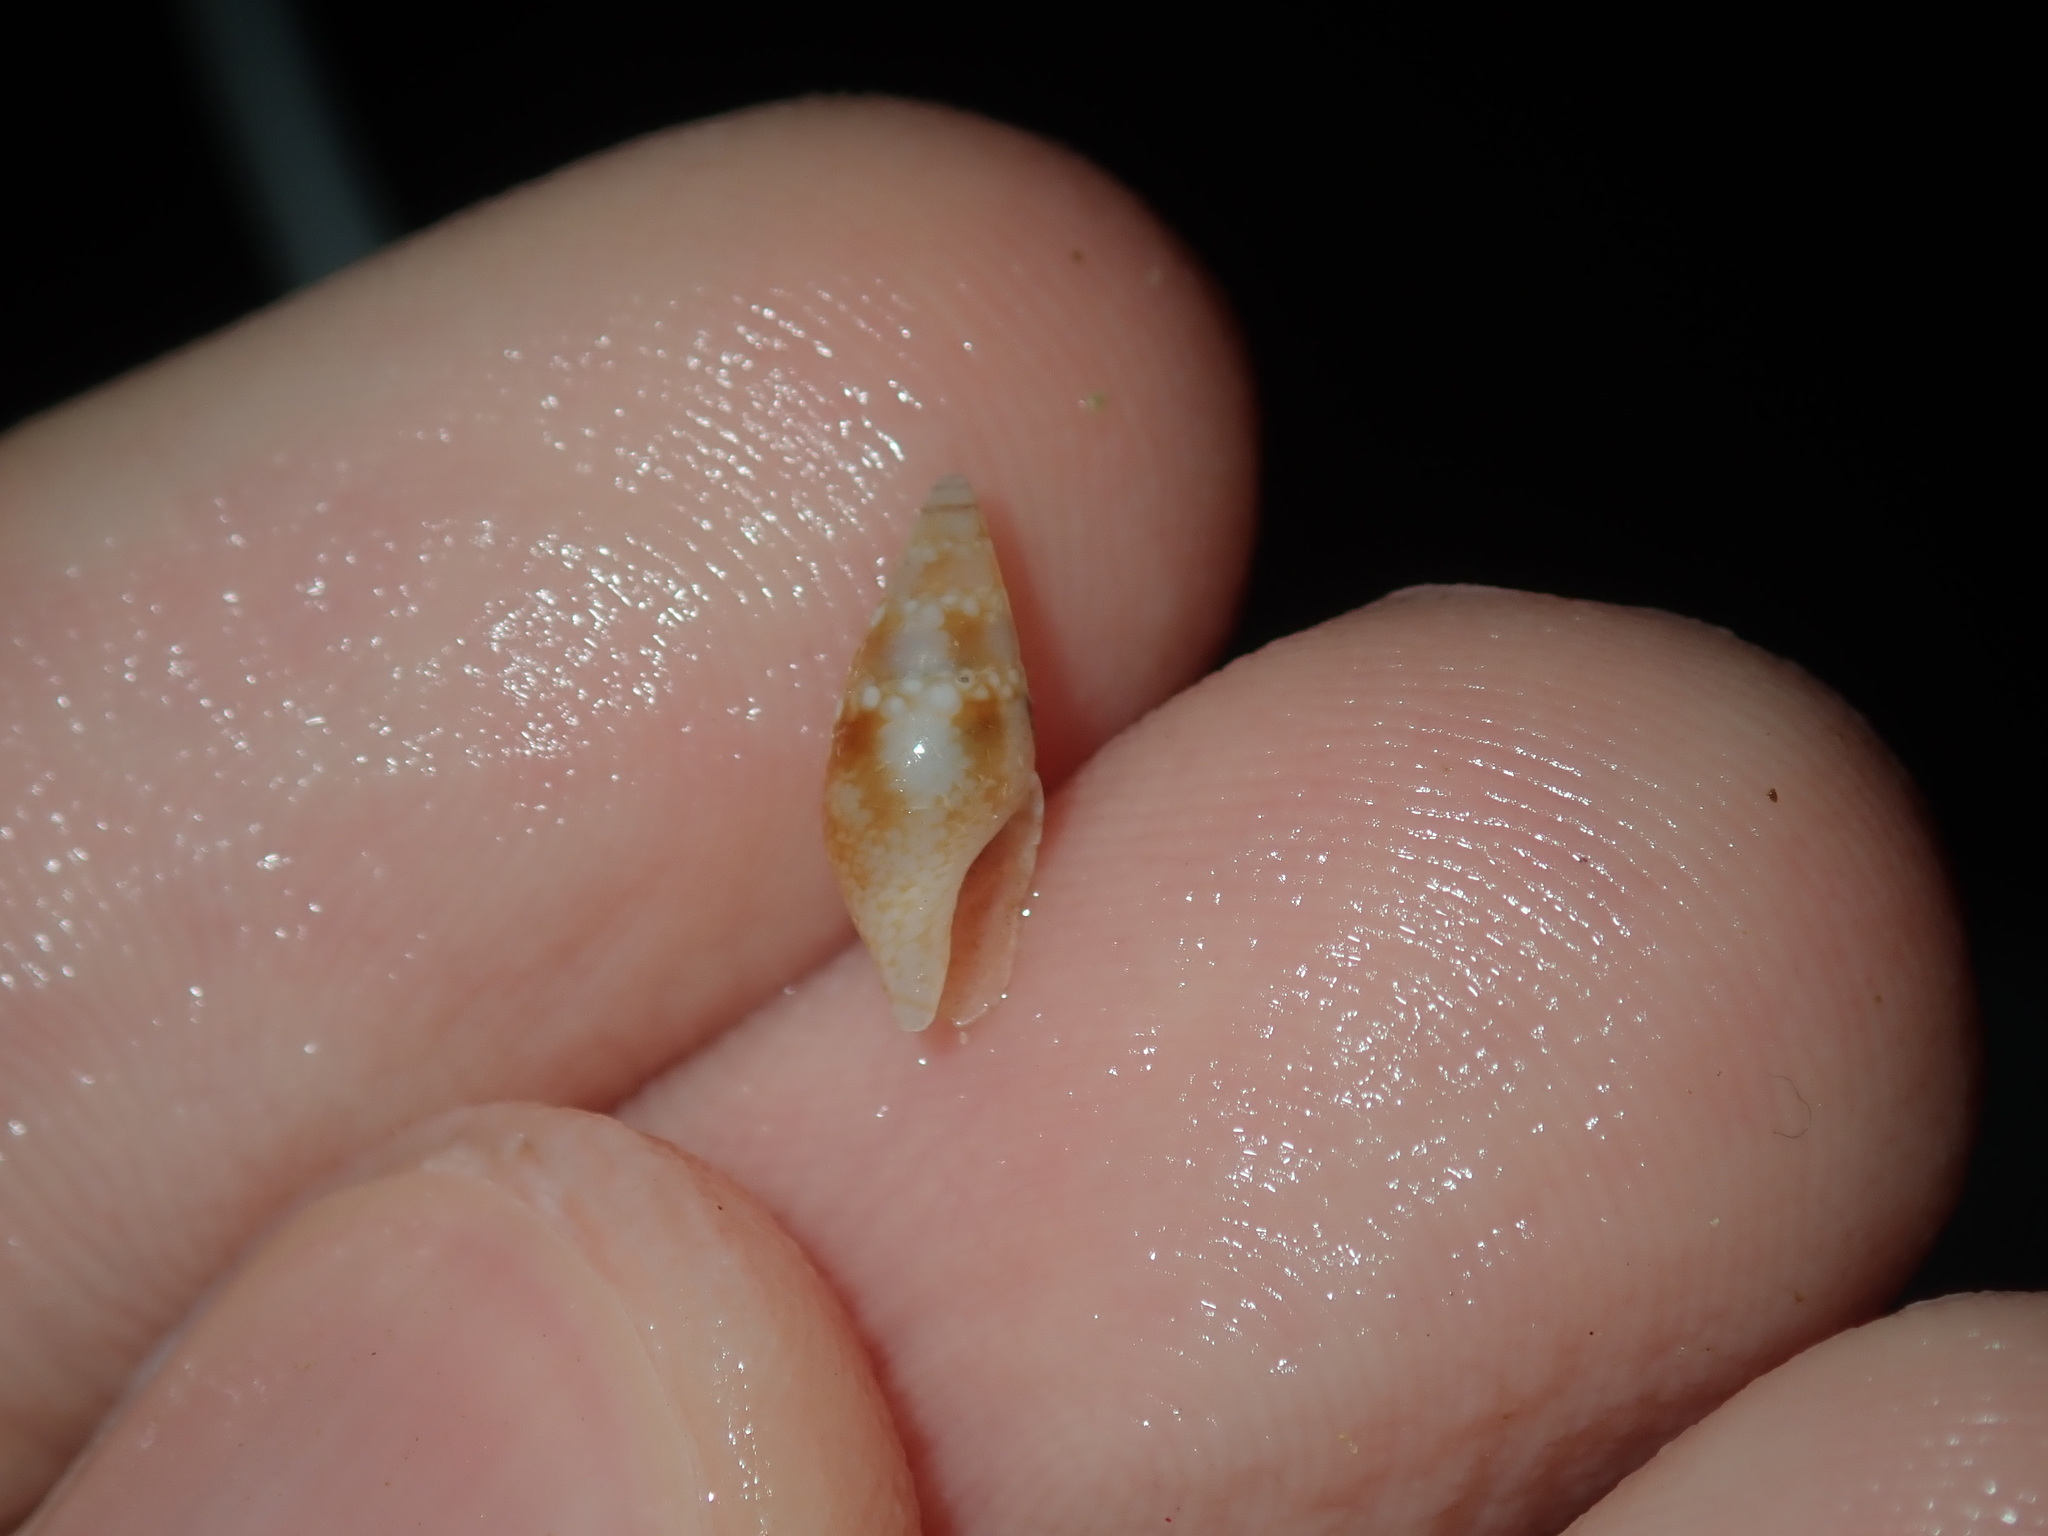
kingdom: Animalia
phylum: Mollusca
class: Gastropoda
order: Neogastropoda
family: Columbellidae
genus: Mitrella
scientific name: Mitrella tayloriana
